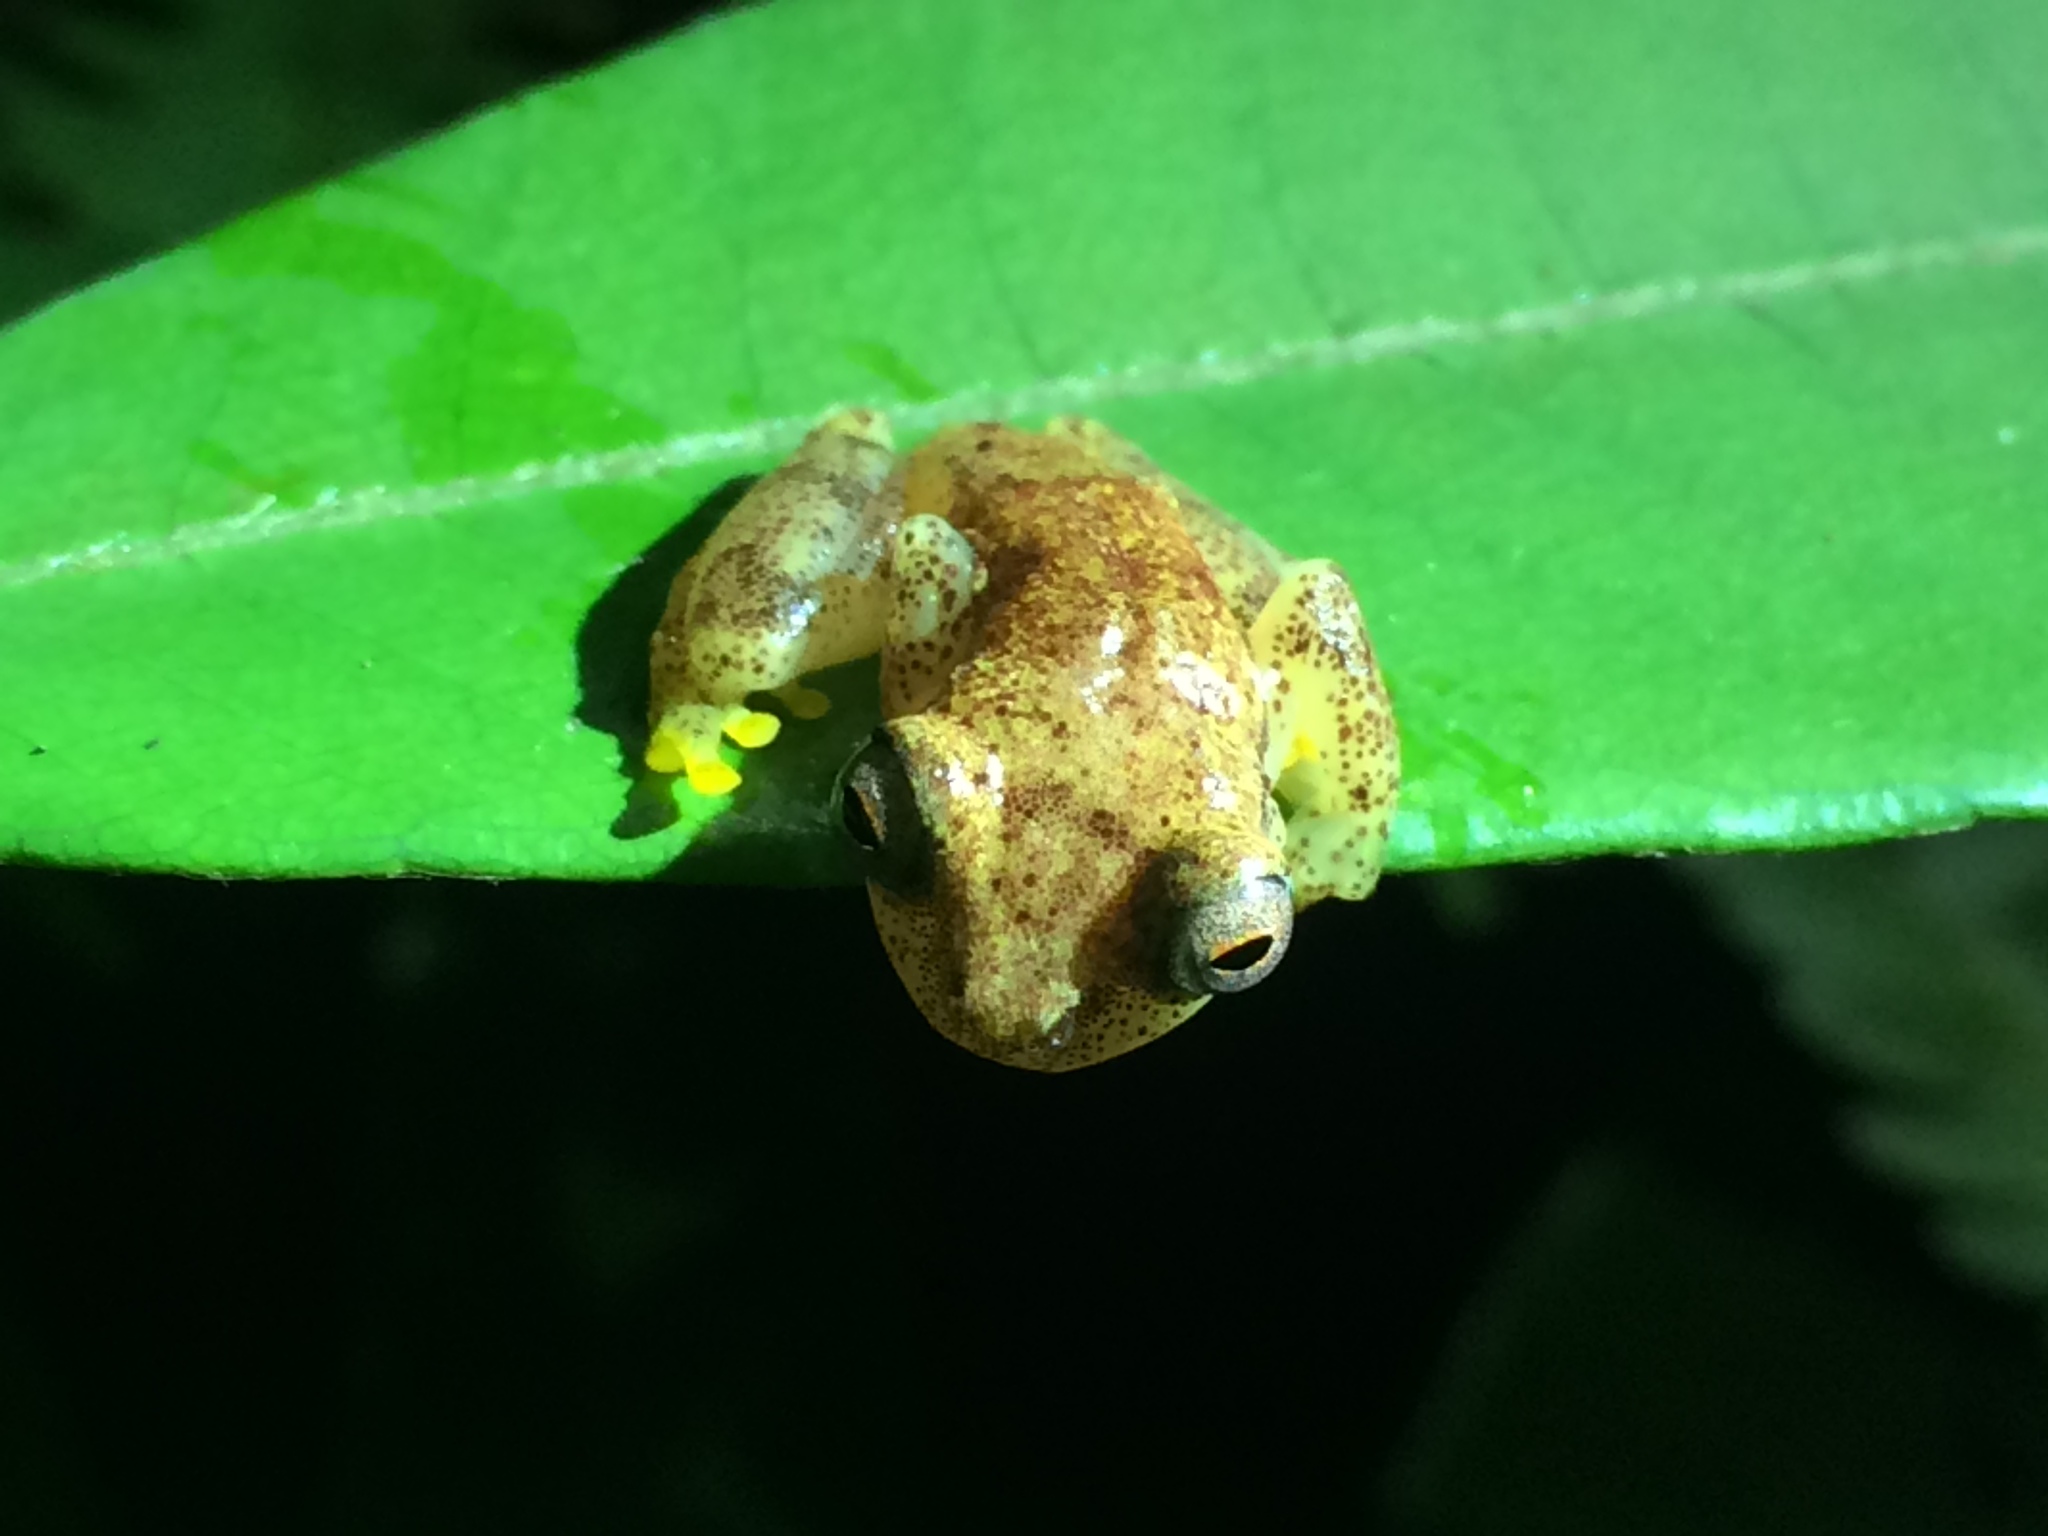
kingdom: Animalia
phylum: Chordata
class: Amphibia
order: Anura
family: Hylidae
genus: Dendropsophus
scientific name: Dendropsophus haddadi
